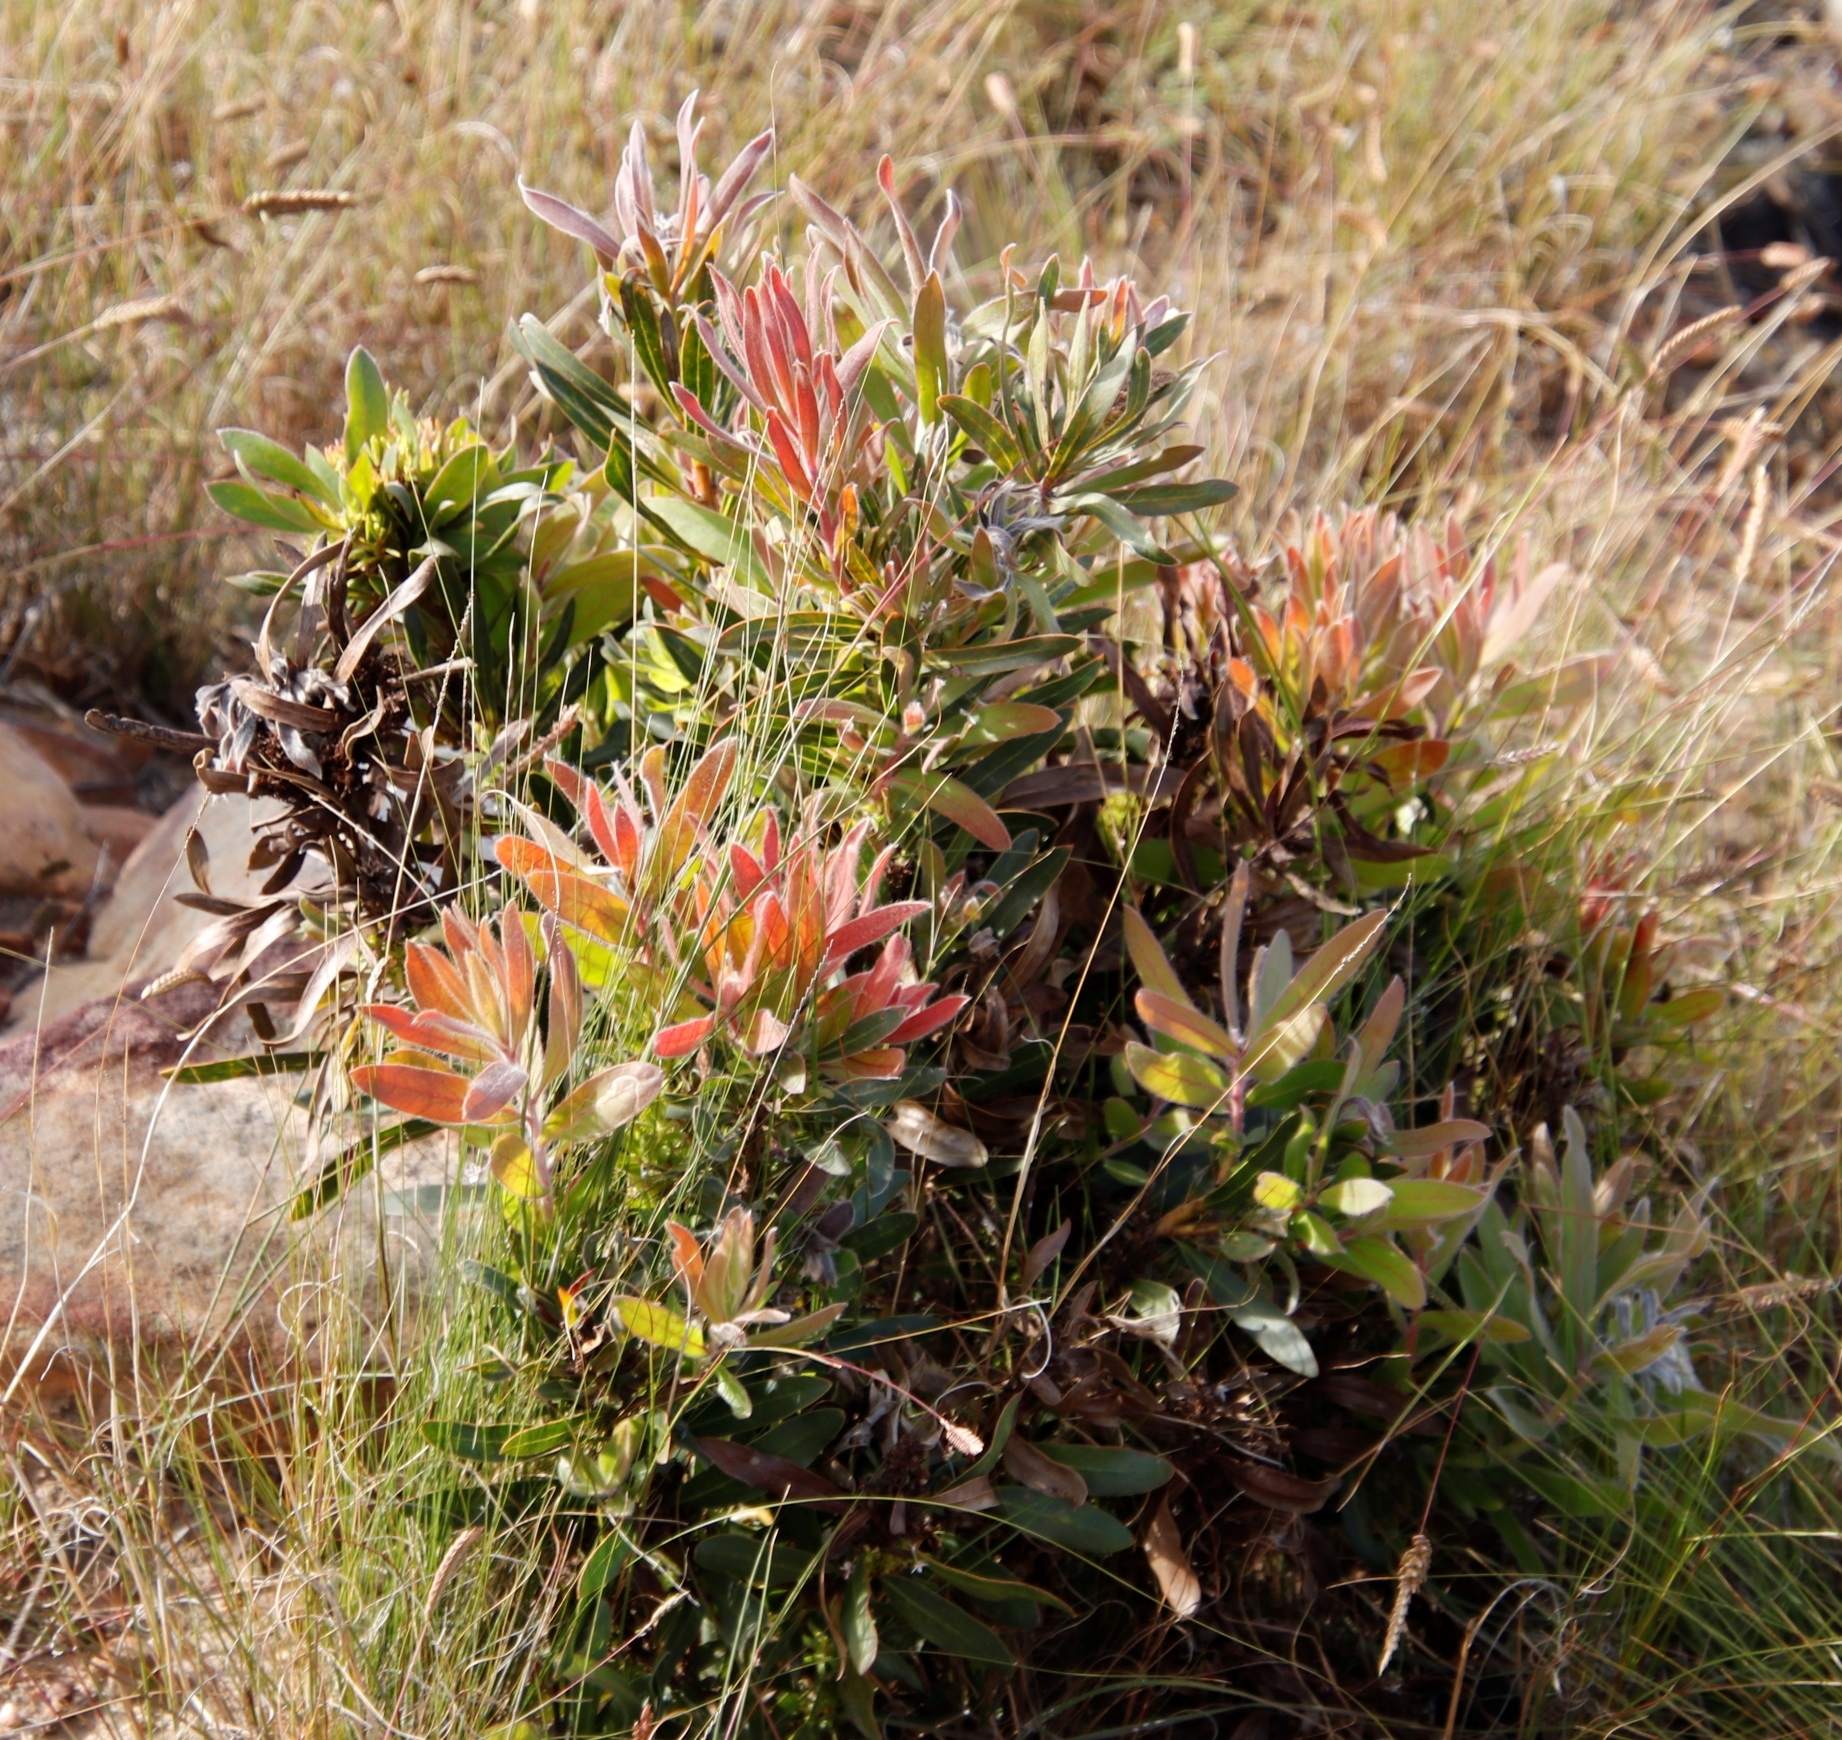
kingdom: Plantae
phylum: Tracheophyta
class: Magnoliopsida
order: Proteales
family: Proteaceae
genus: Protea
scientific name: Protea lepidocarpodendron
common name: Black-bearded protea
